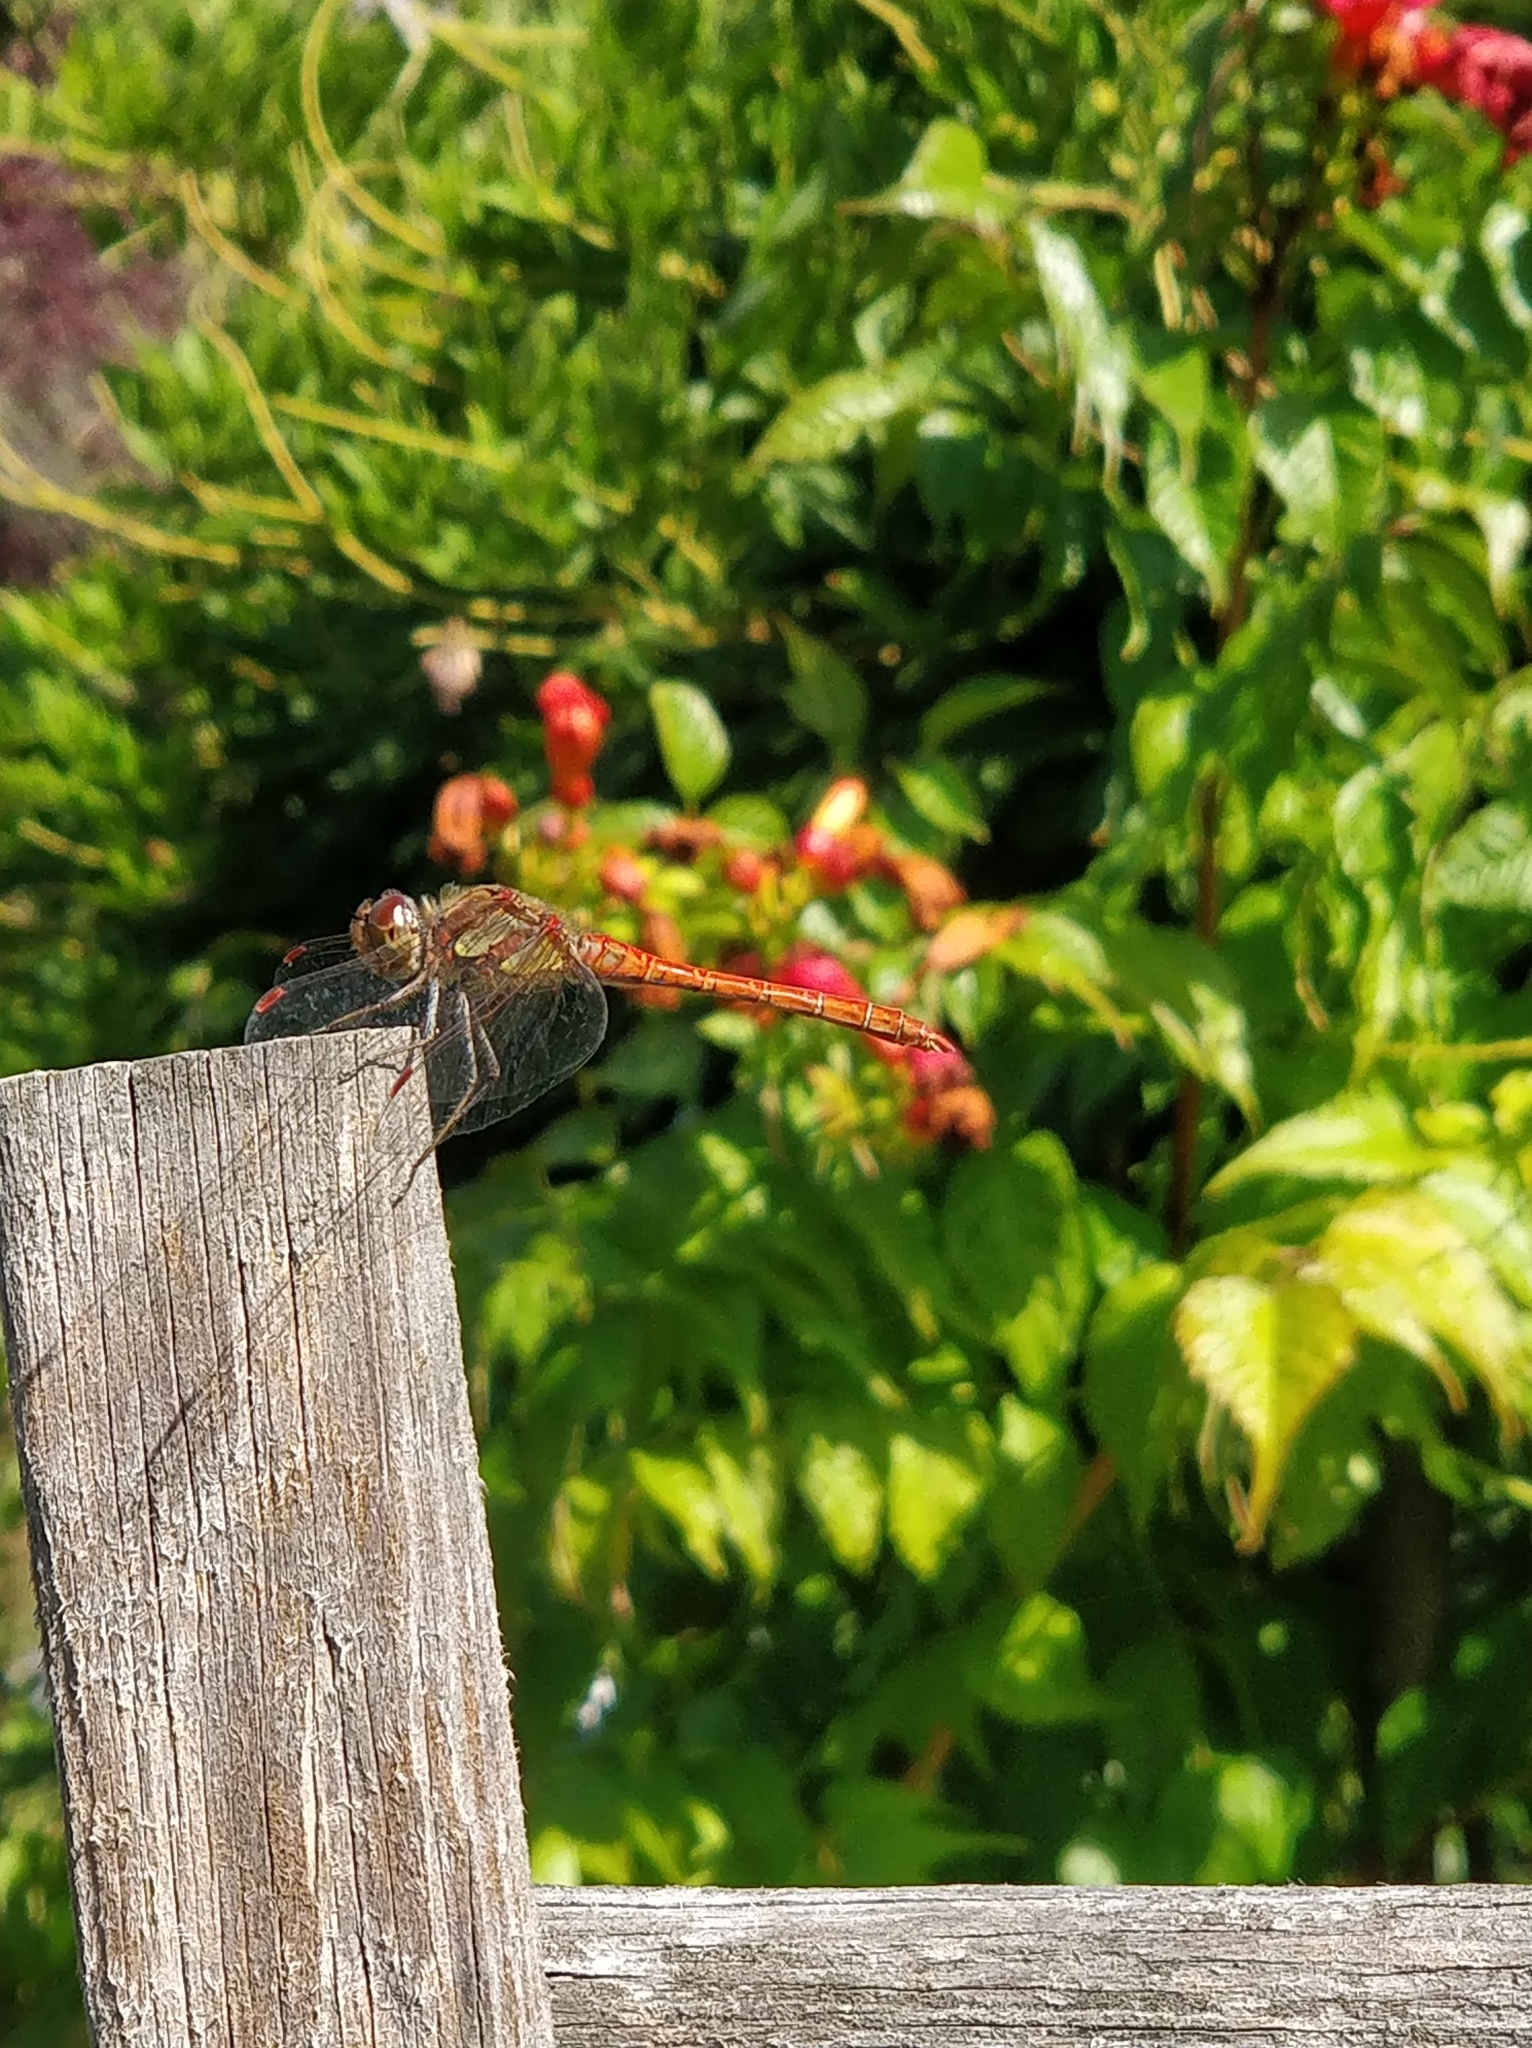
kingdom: Animalia
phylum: Arthropoda
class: Insecta
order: Odonata
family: Libellulidae
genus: Sympetrum
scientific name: Sympetrum striolatum
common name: Common darter
